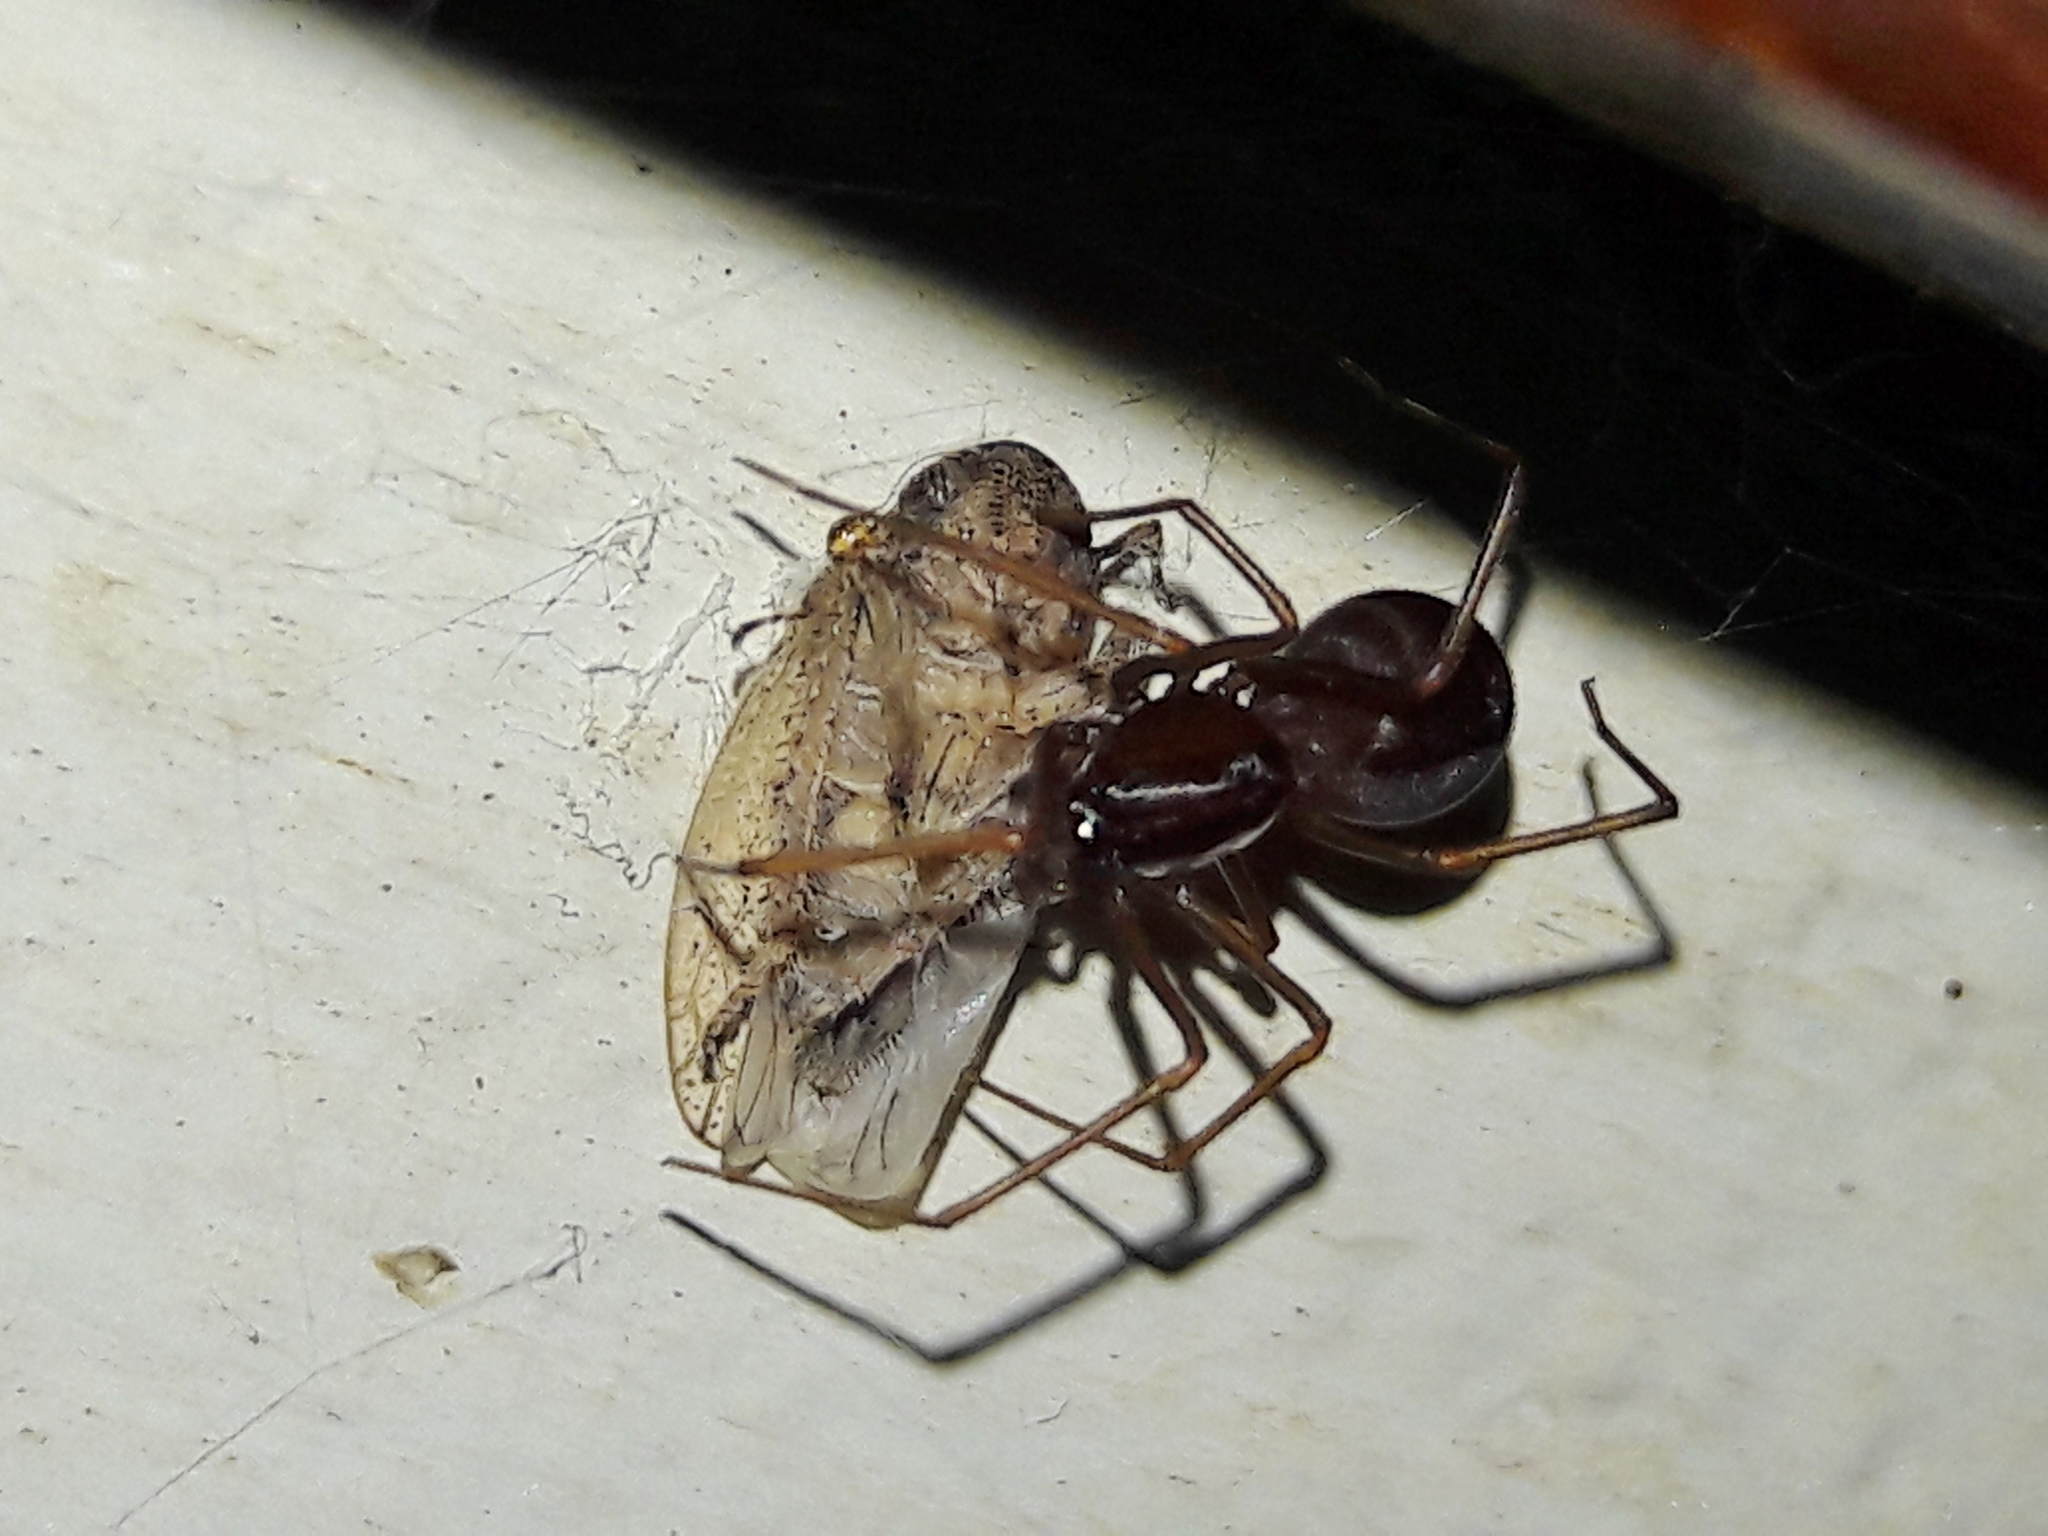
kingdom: Animalia
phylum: Arthropoda
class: Arachnida
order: Araneae
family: Scytodidae
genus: Scytodes
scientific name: Scytodes fusca
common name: Spitting spiders
